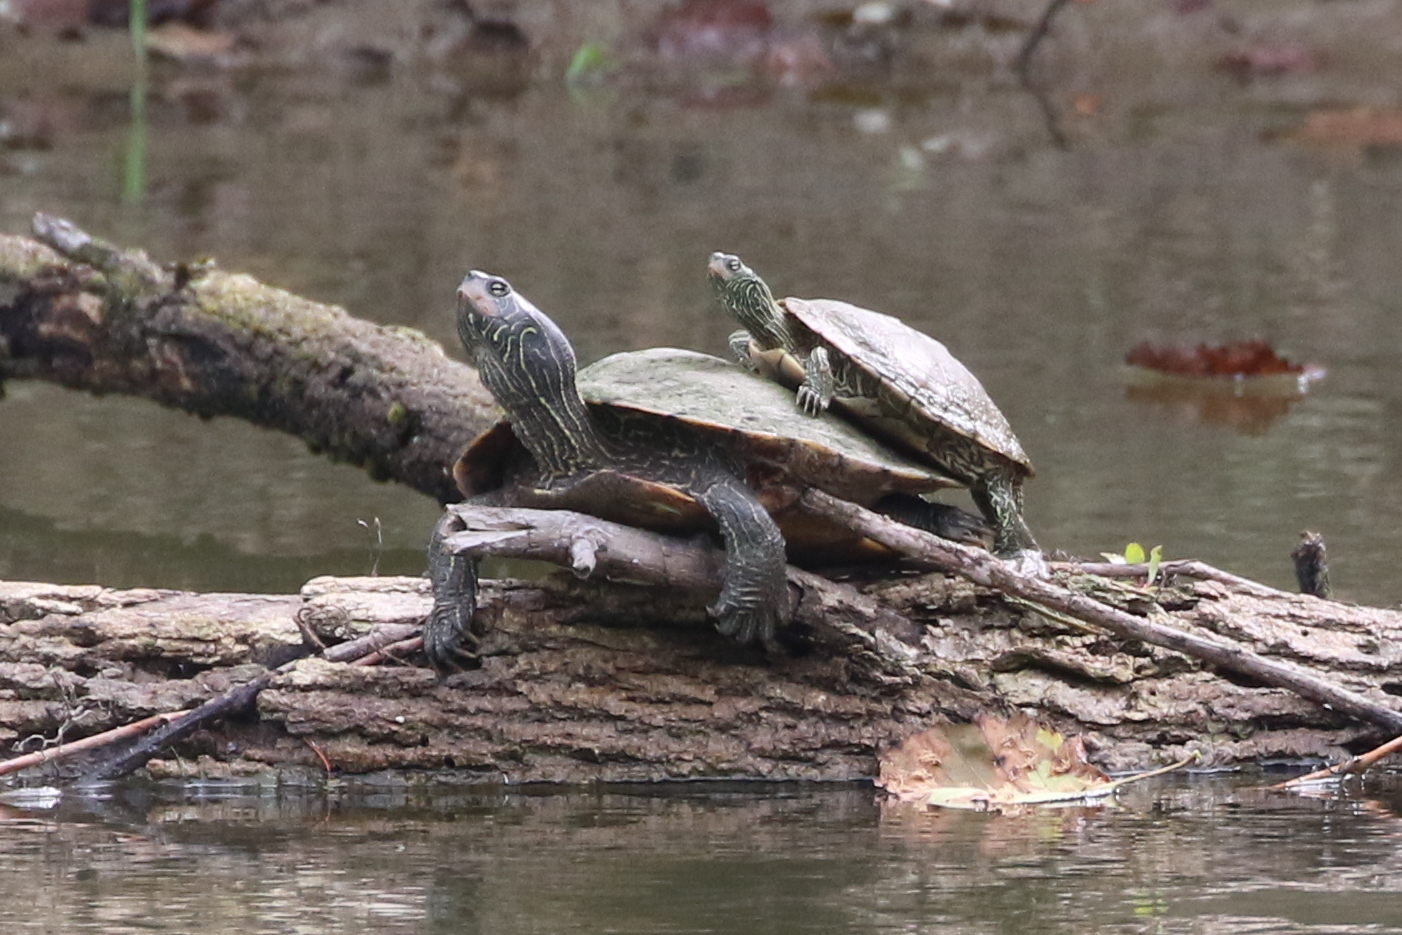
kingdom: Animalia
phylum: Chordata
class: Testudines
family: Emydidae
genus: Graptemys
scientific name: Graptemys geographica
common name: Common map turtle
